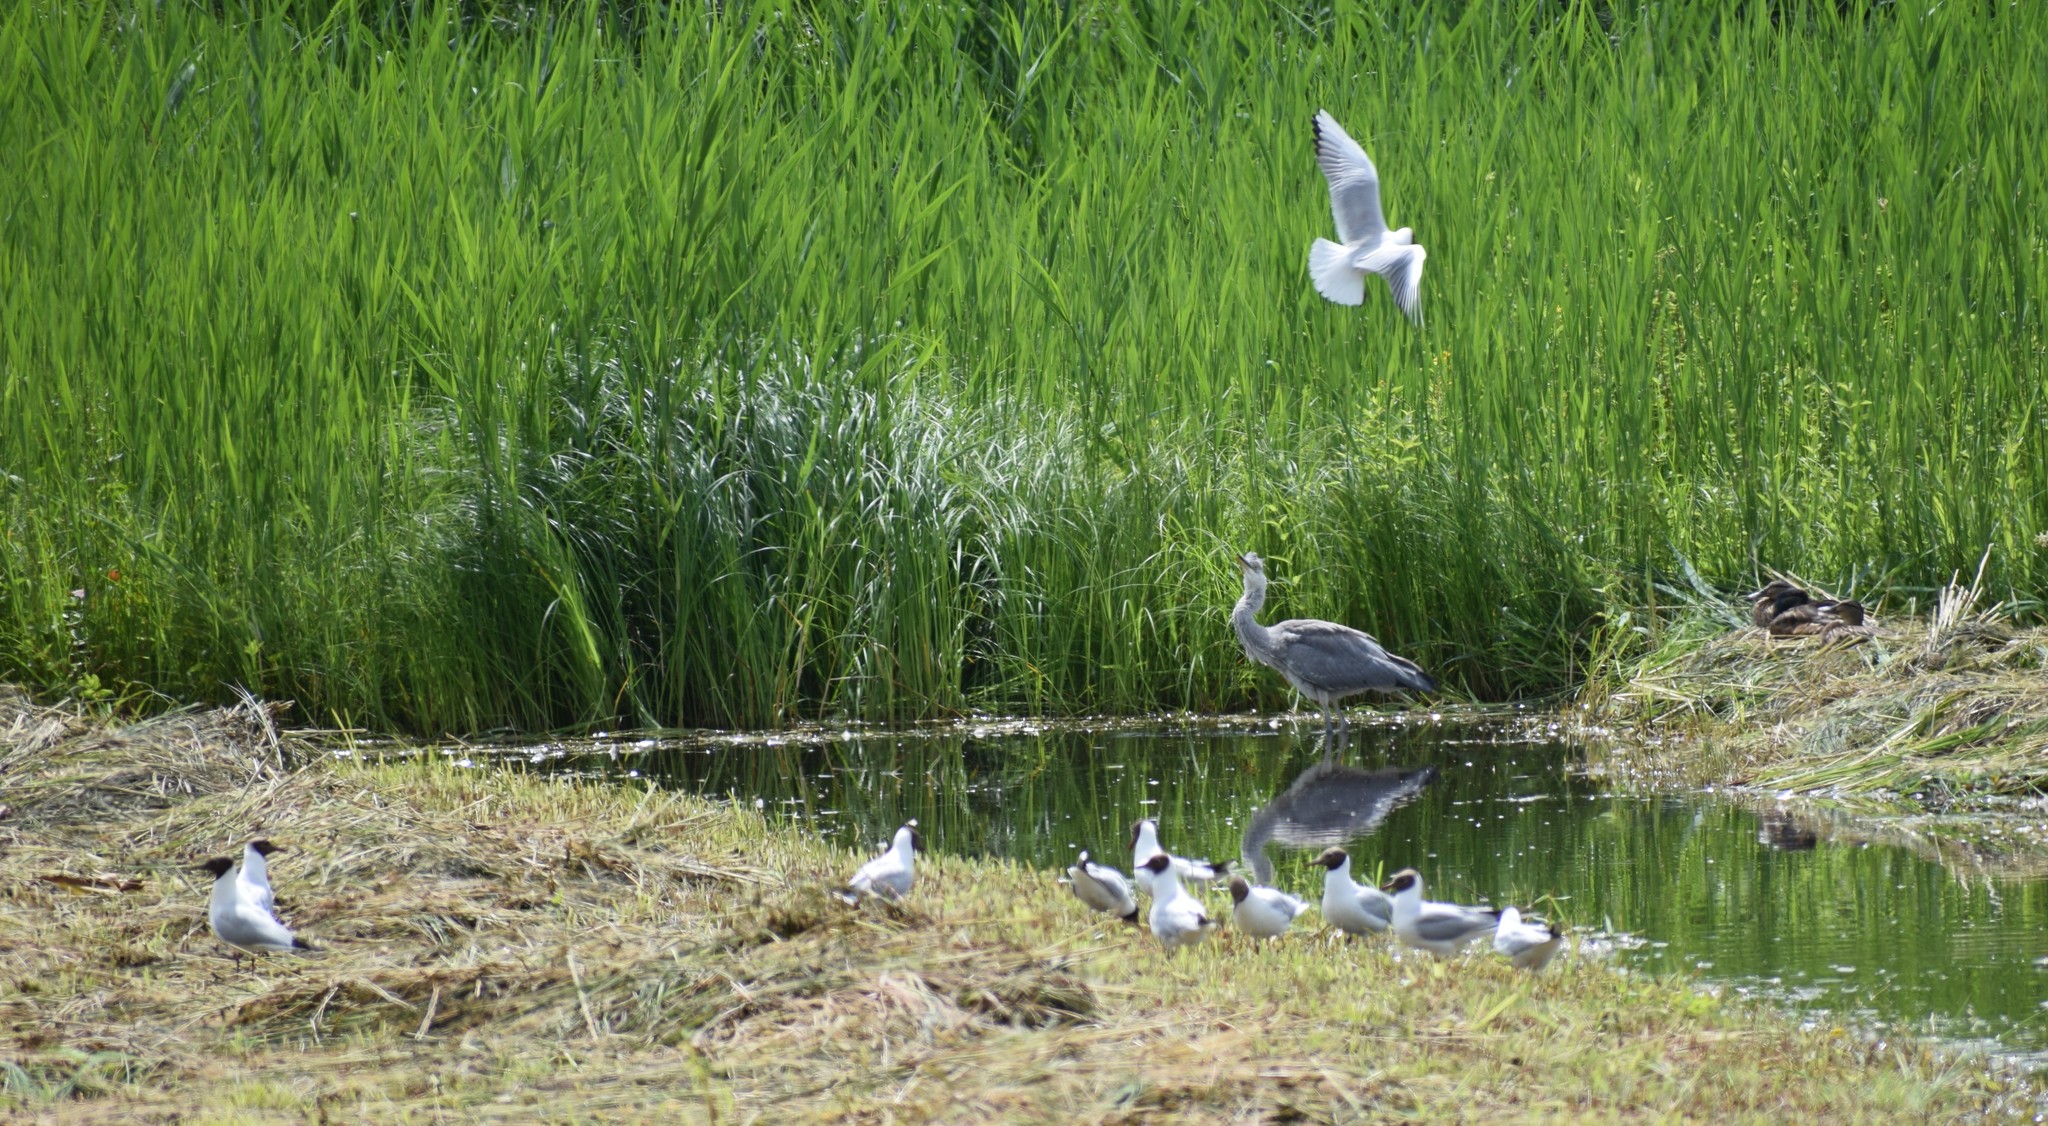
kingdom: Animalia
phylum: Chordata
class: Aves
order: Pelecaniformes
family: Ardeidae
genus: Ardea
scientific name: Ardea cinerea
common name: Grey heron
